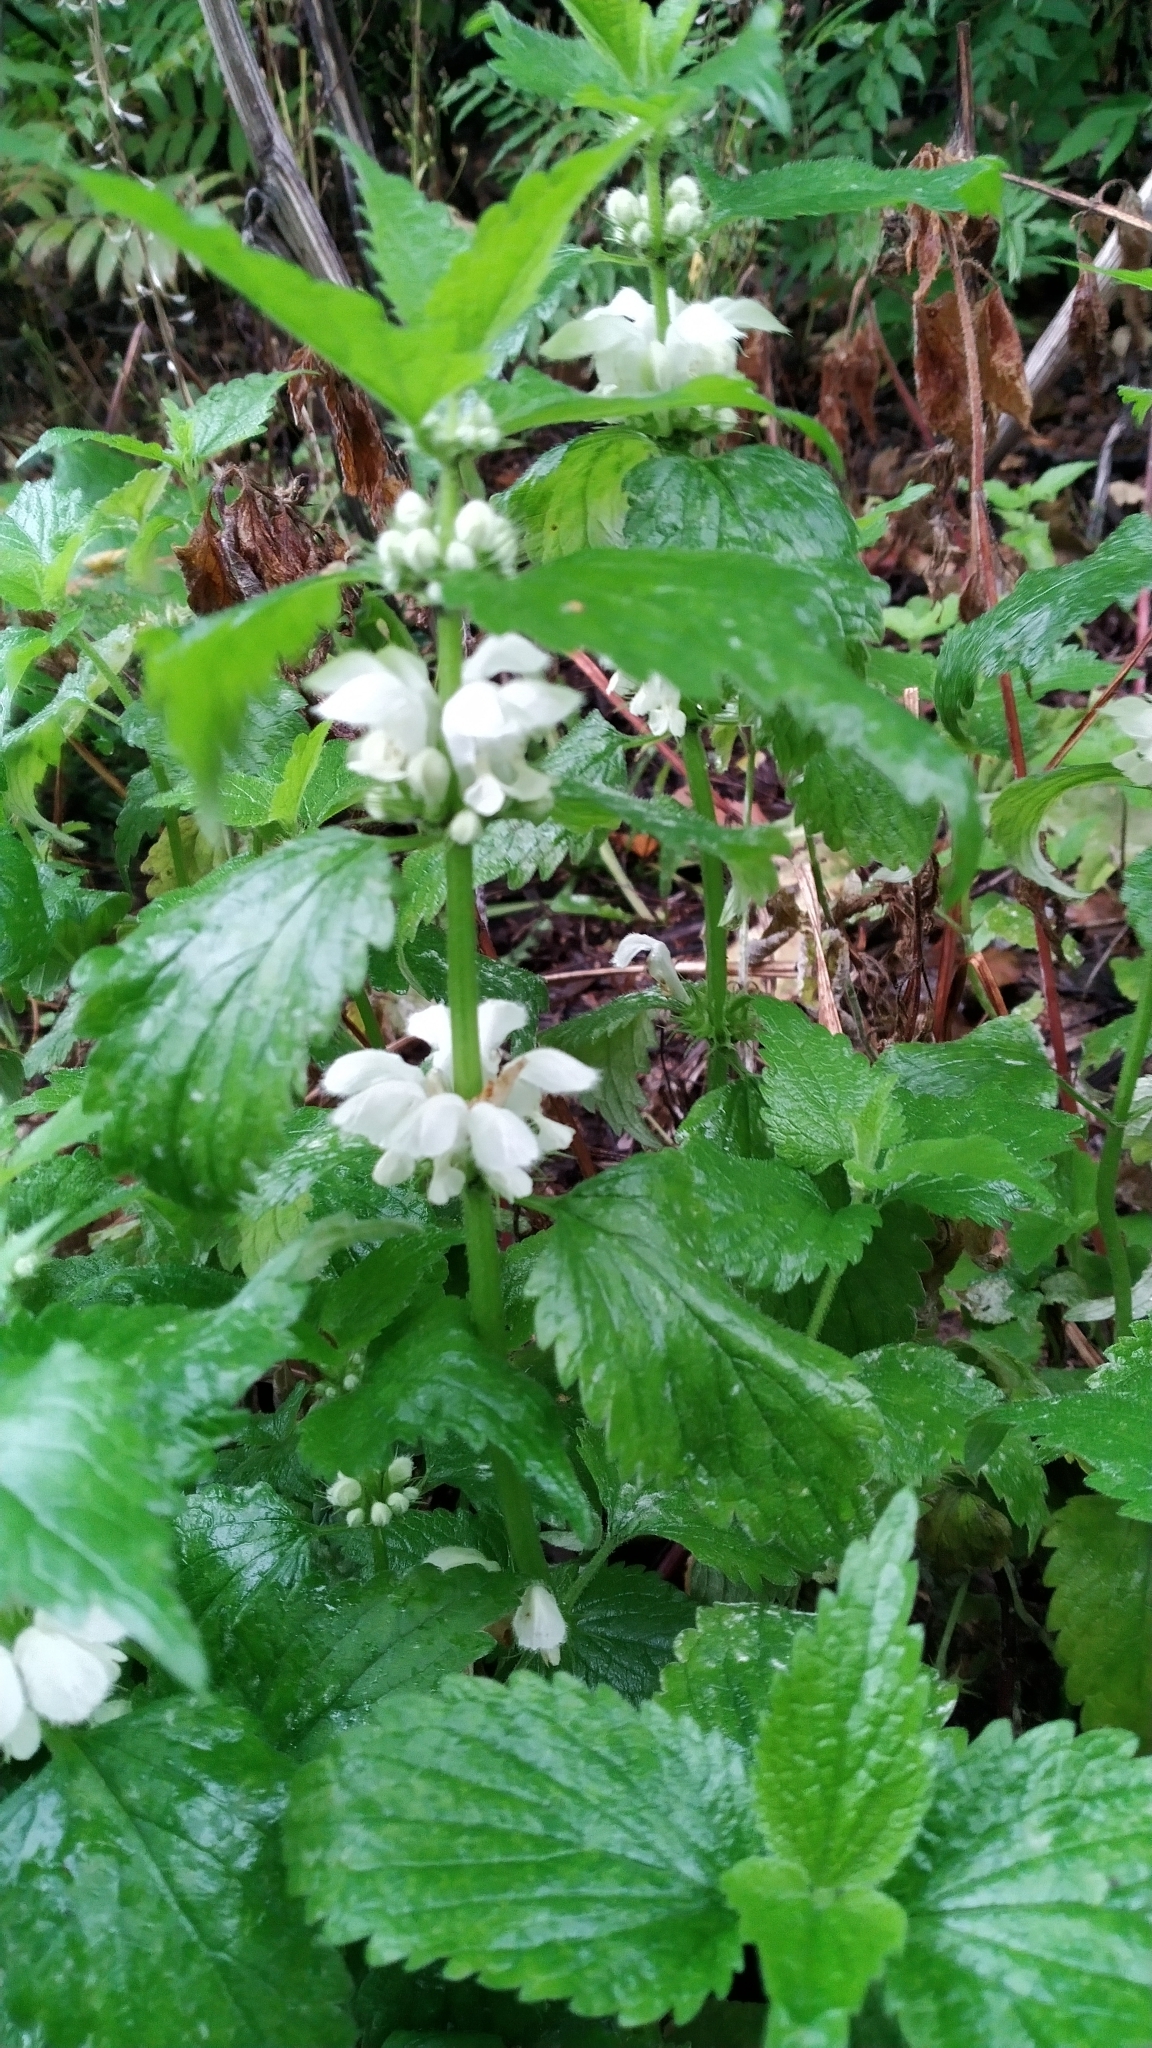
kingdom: Plantae
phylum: Tracheophyta
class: Magnoliopsida
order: Lamiales
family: Lamiaceae
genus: Lamium
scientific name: Lamium album
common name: White dead-nettle
